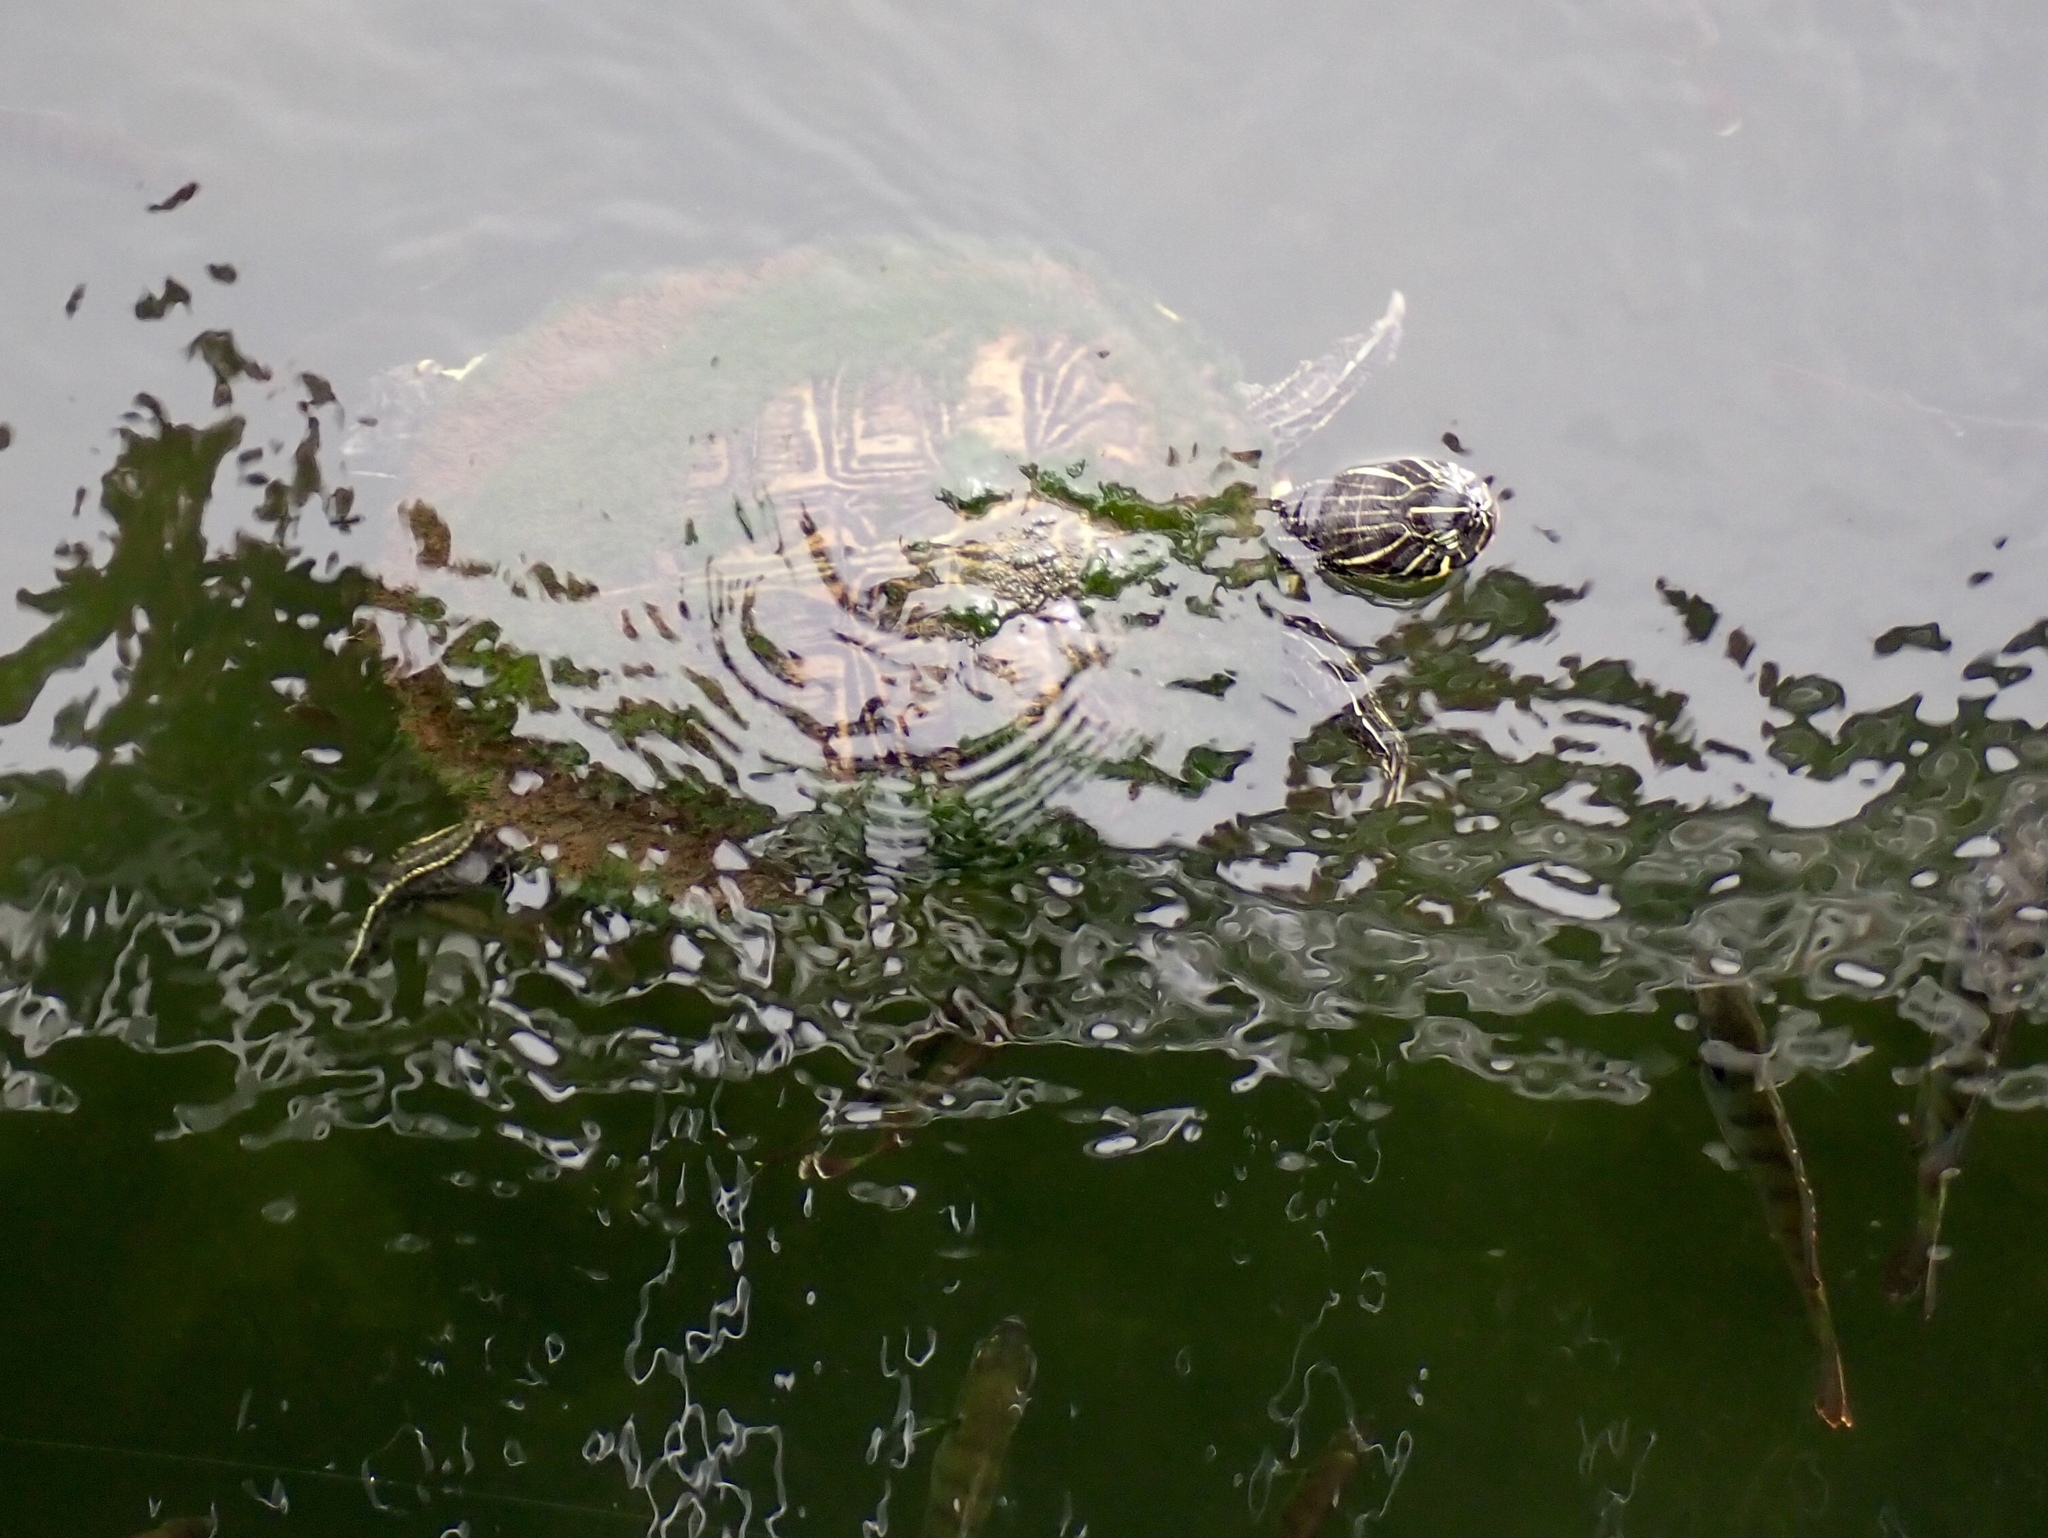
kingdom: Animalia
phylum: Chordata
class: Testudines
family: Emydidae
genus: Pseudemys
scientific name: Pseudemys peninsularis
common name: Peninsula cooter
